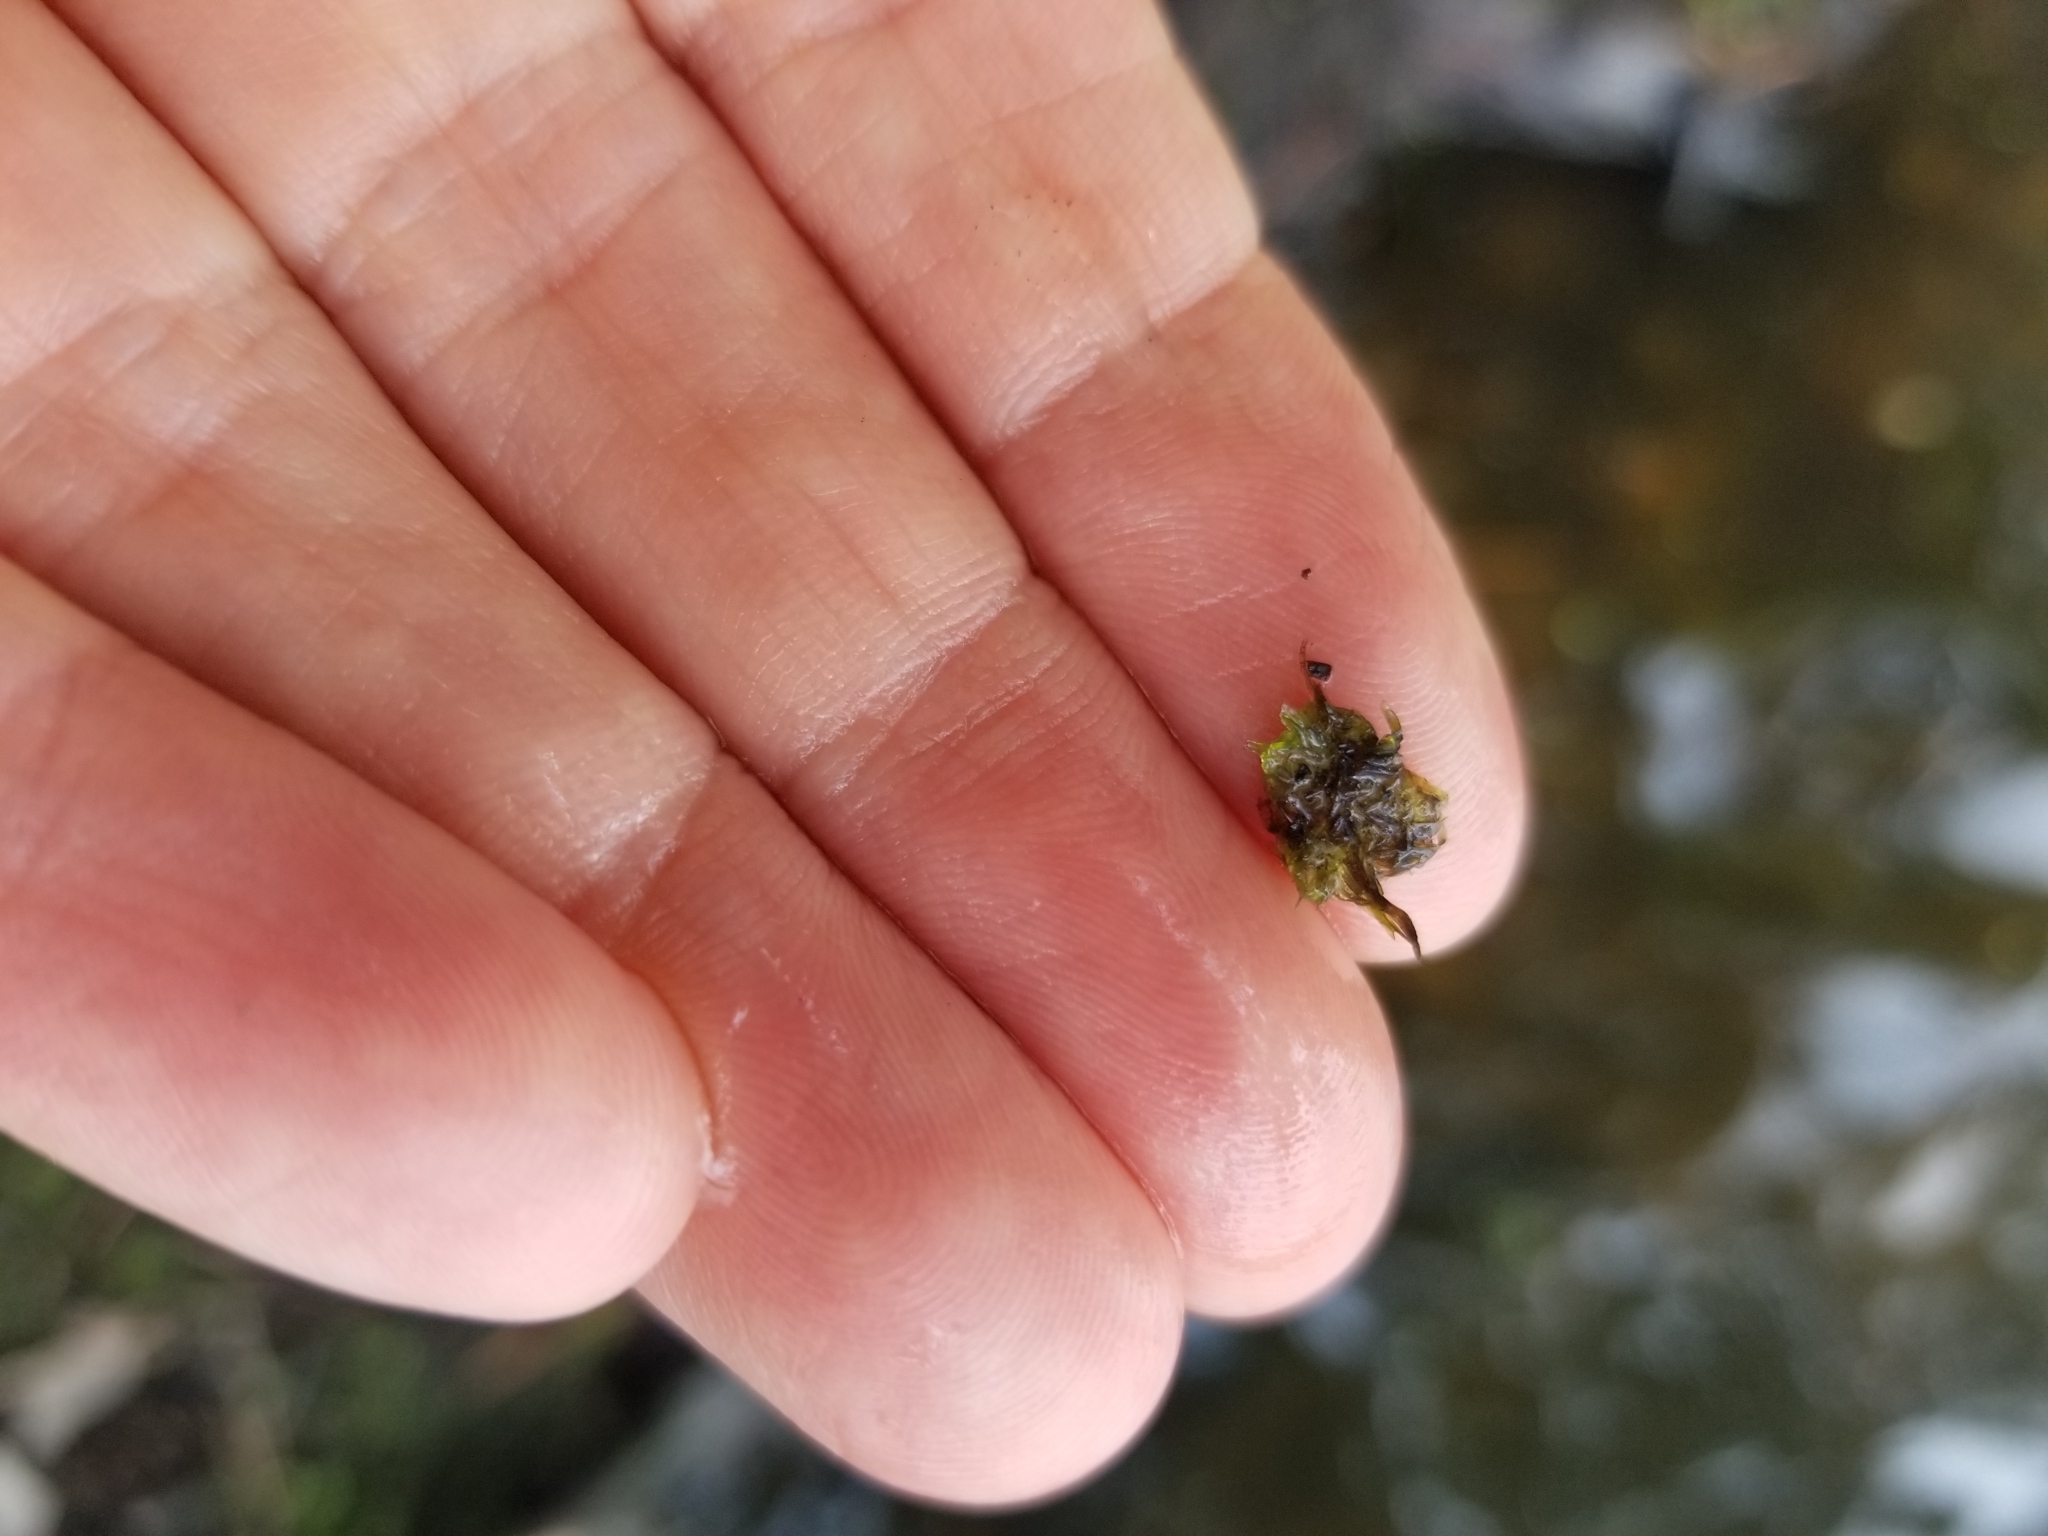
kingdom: Plantae
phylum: Marchantiophyta
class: Marchantiopsida
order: Marchantiales
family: Ricciaceae
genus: Ricciocarpos
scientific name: Ricciocarpos natans
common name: Purple-fringed liverwort
